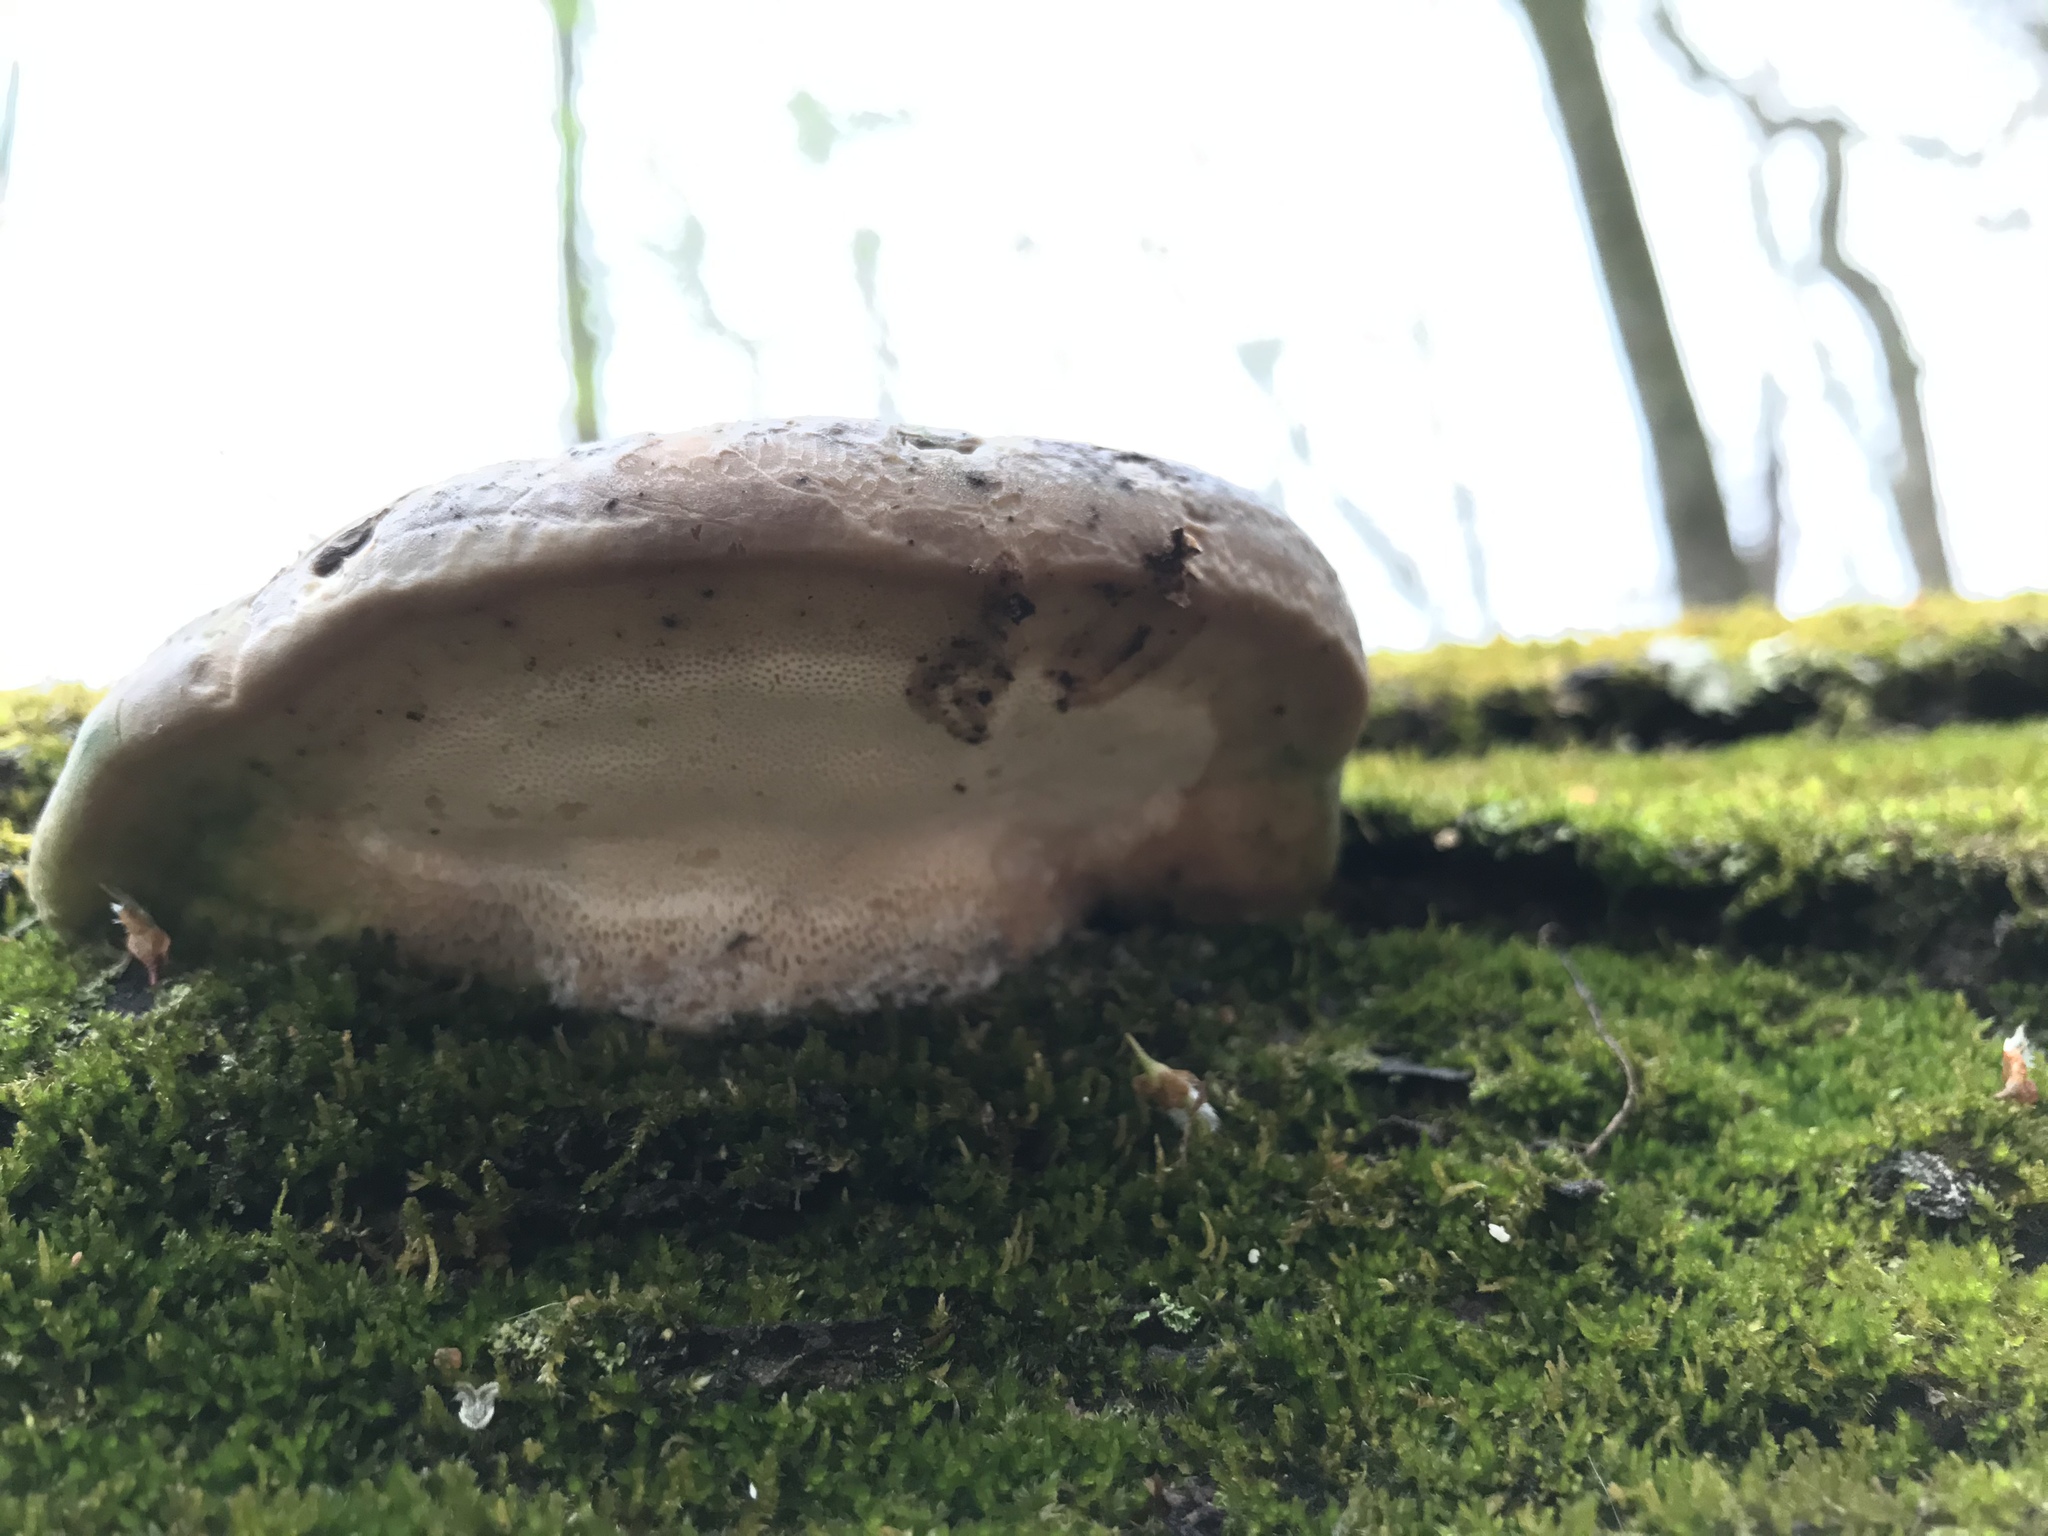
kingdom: Fungi
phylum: Basidiomycota
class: Agaricomycetes
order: Polyporales
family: Polyporaceae
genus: Trametes
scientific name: Trametes
